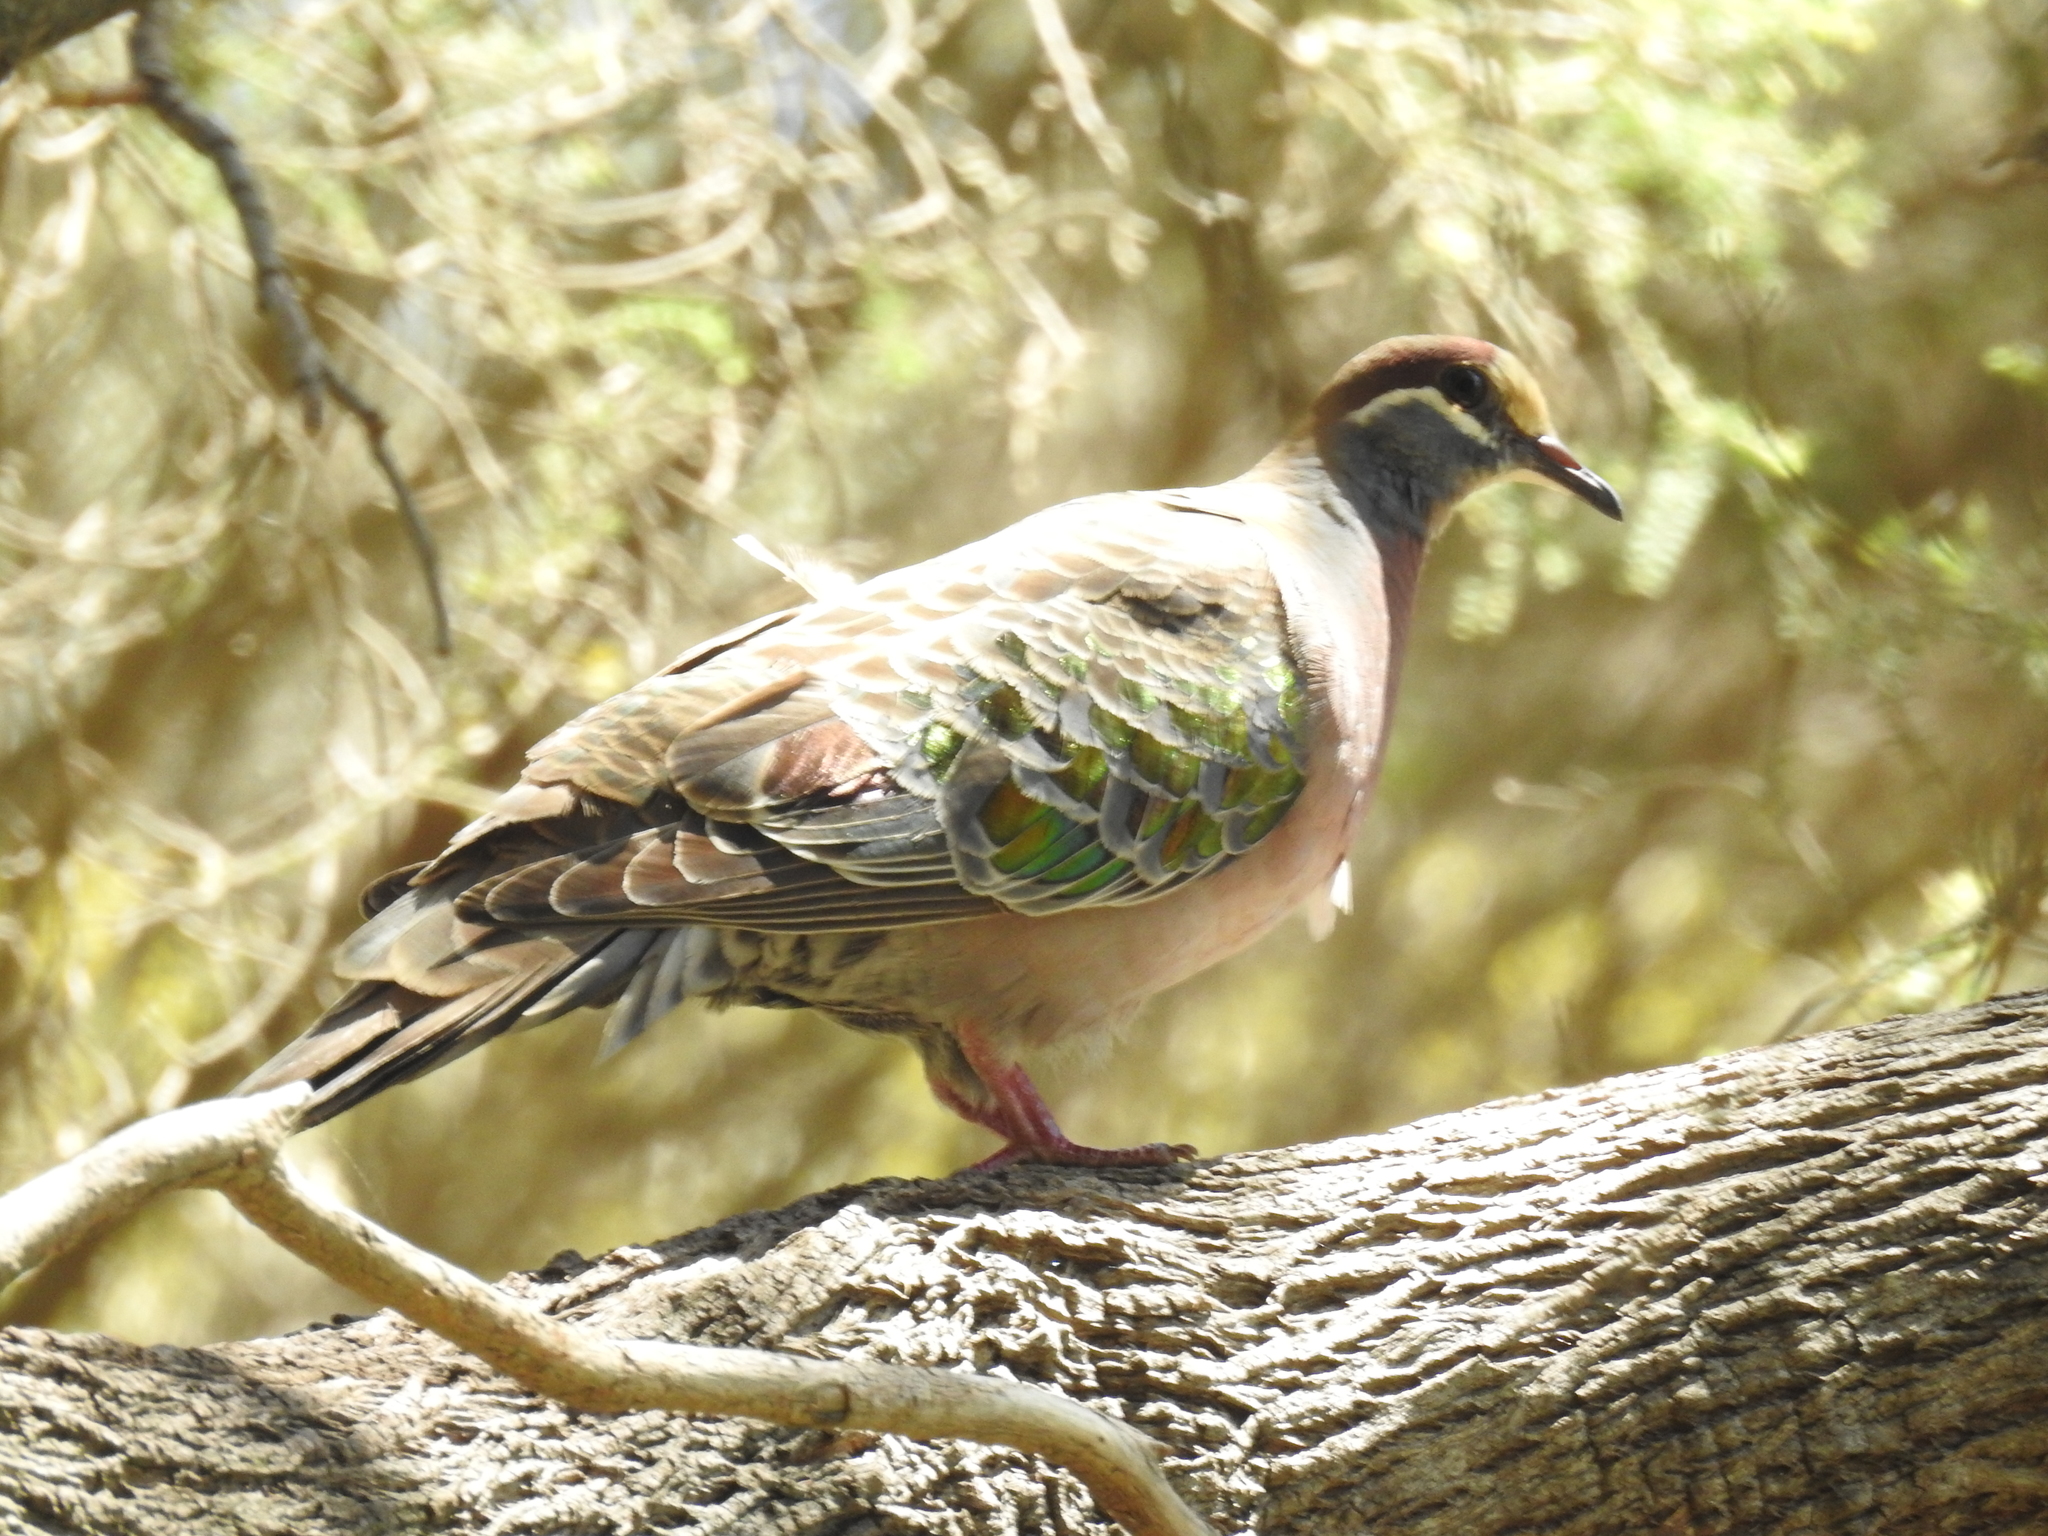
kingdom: Animalia
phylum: Chordata
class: Aves
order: Columbiformes
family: Columbidae
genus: Phaps
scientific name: Phaps chalcoptera
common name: Common bronzewing
